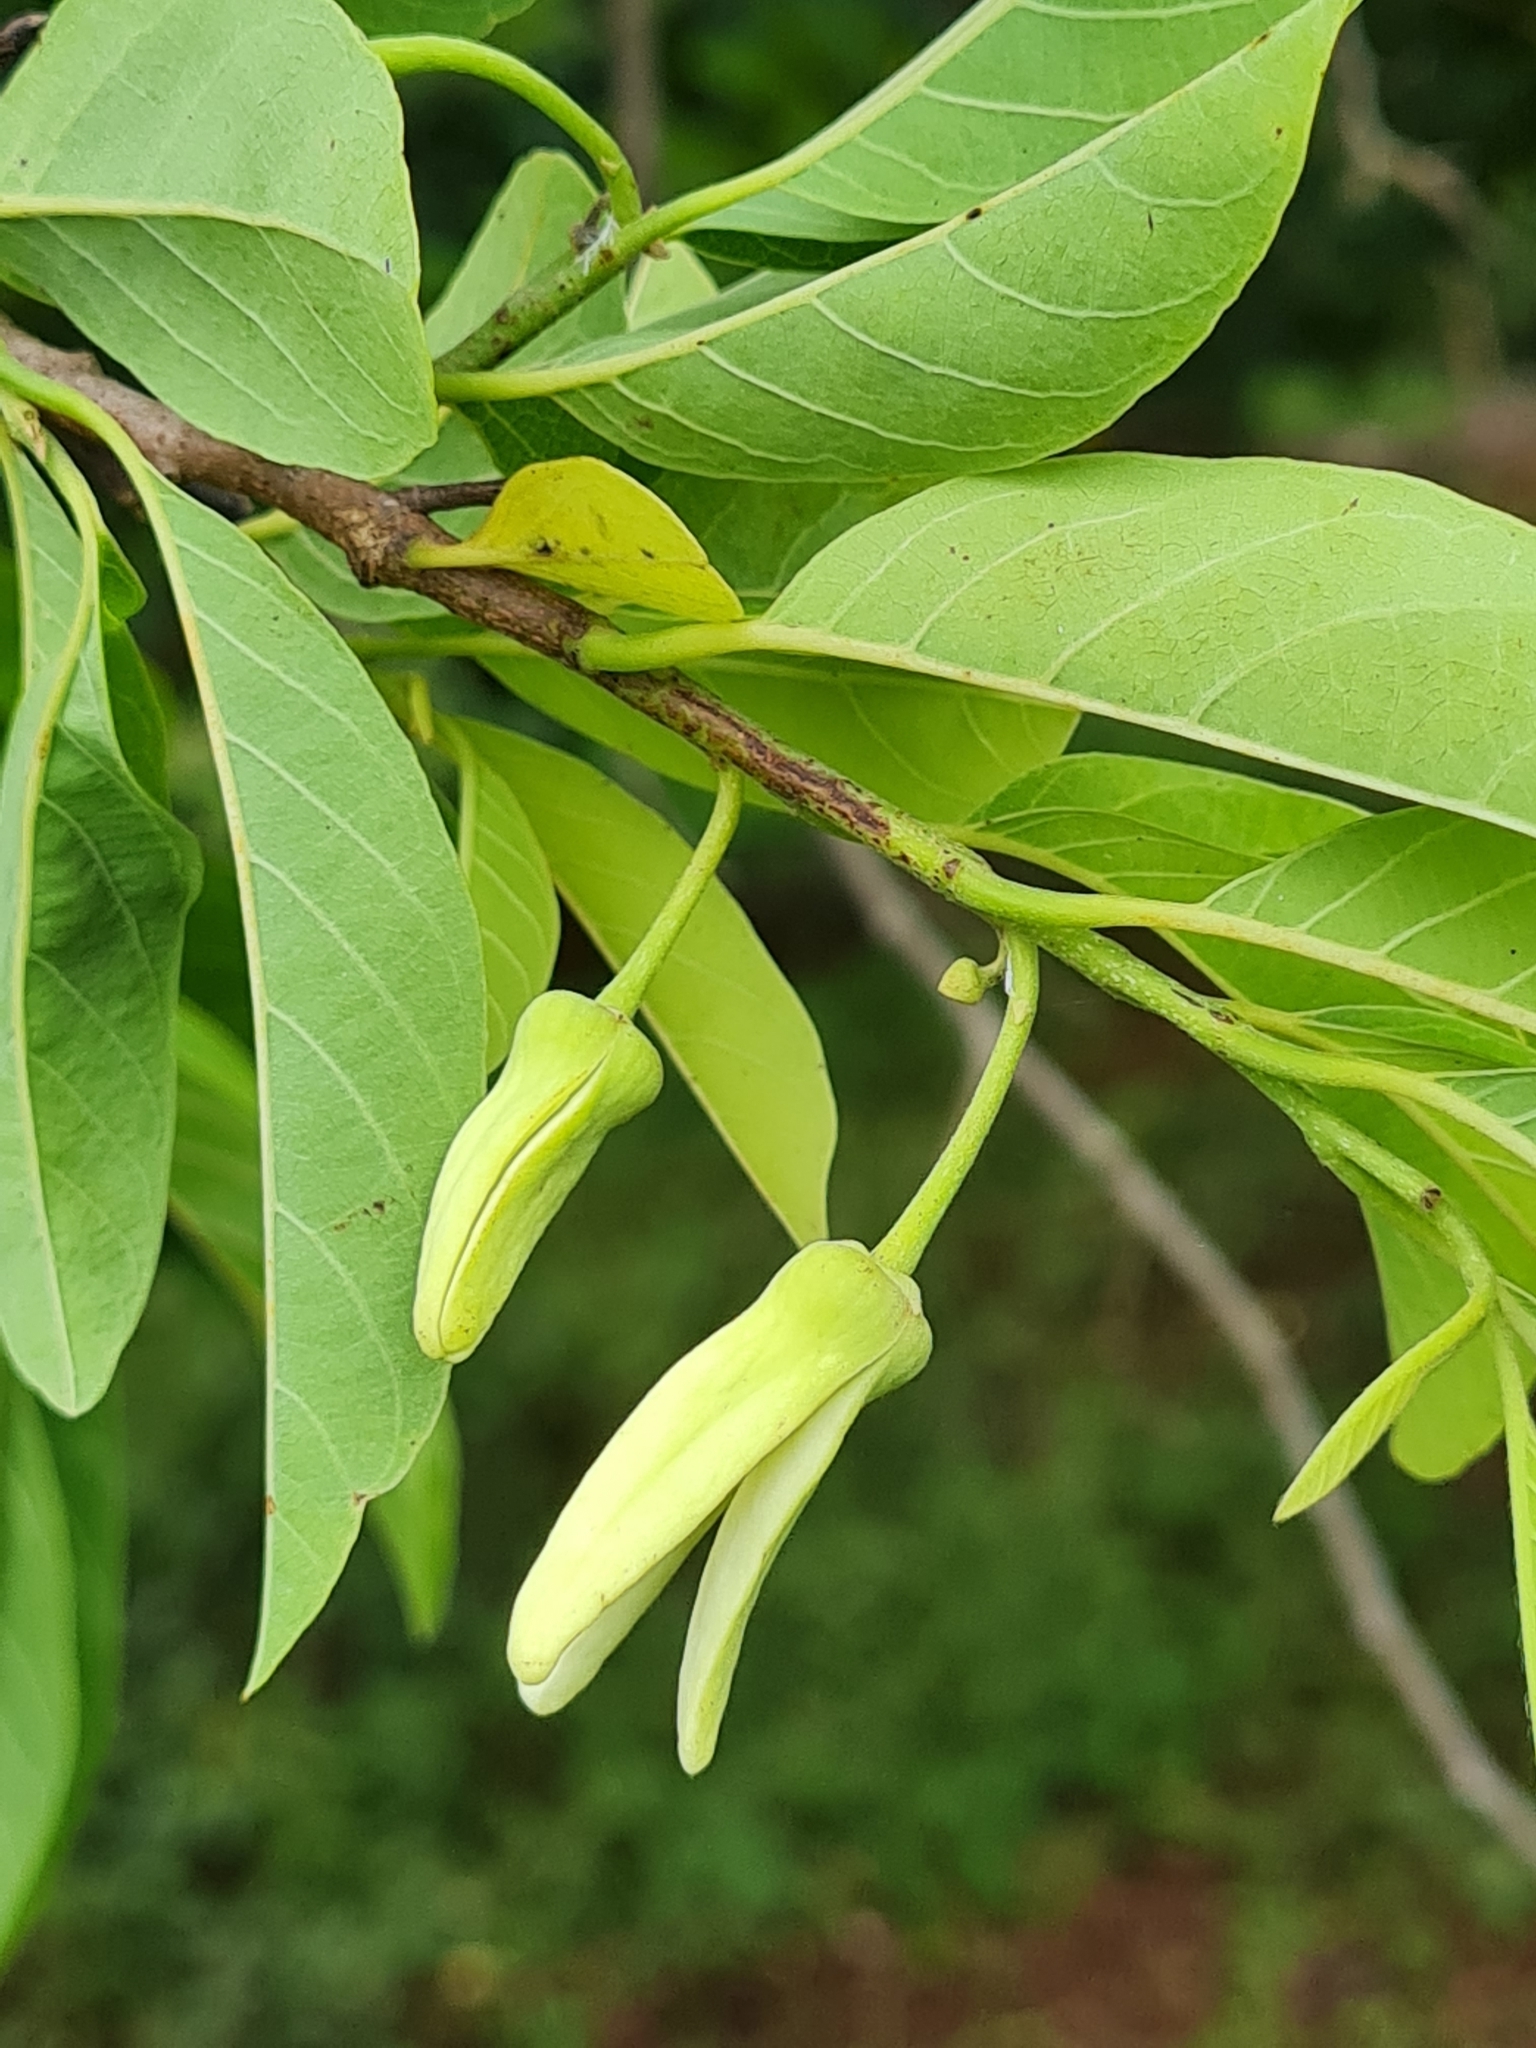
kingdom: Plantae
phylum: Tracheophyta
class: Magnoliopsida
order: Magnoliales
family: Annonaceae
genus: Annona
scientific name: Annona squamosa
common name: Custard-apple
